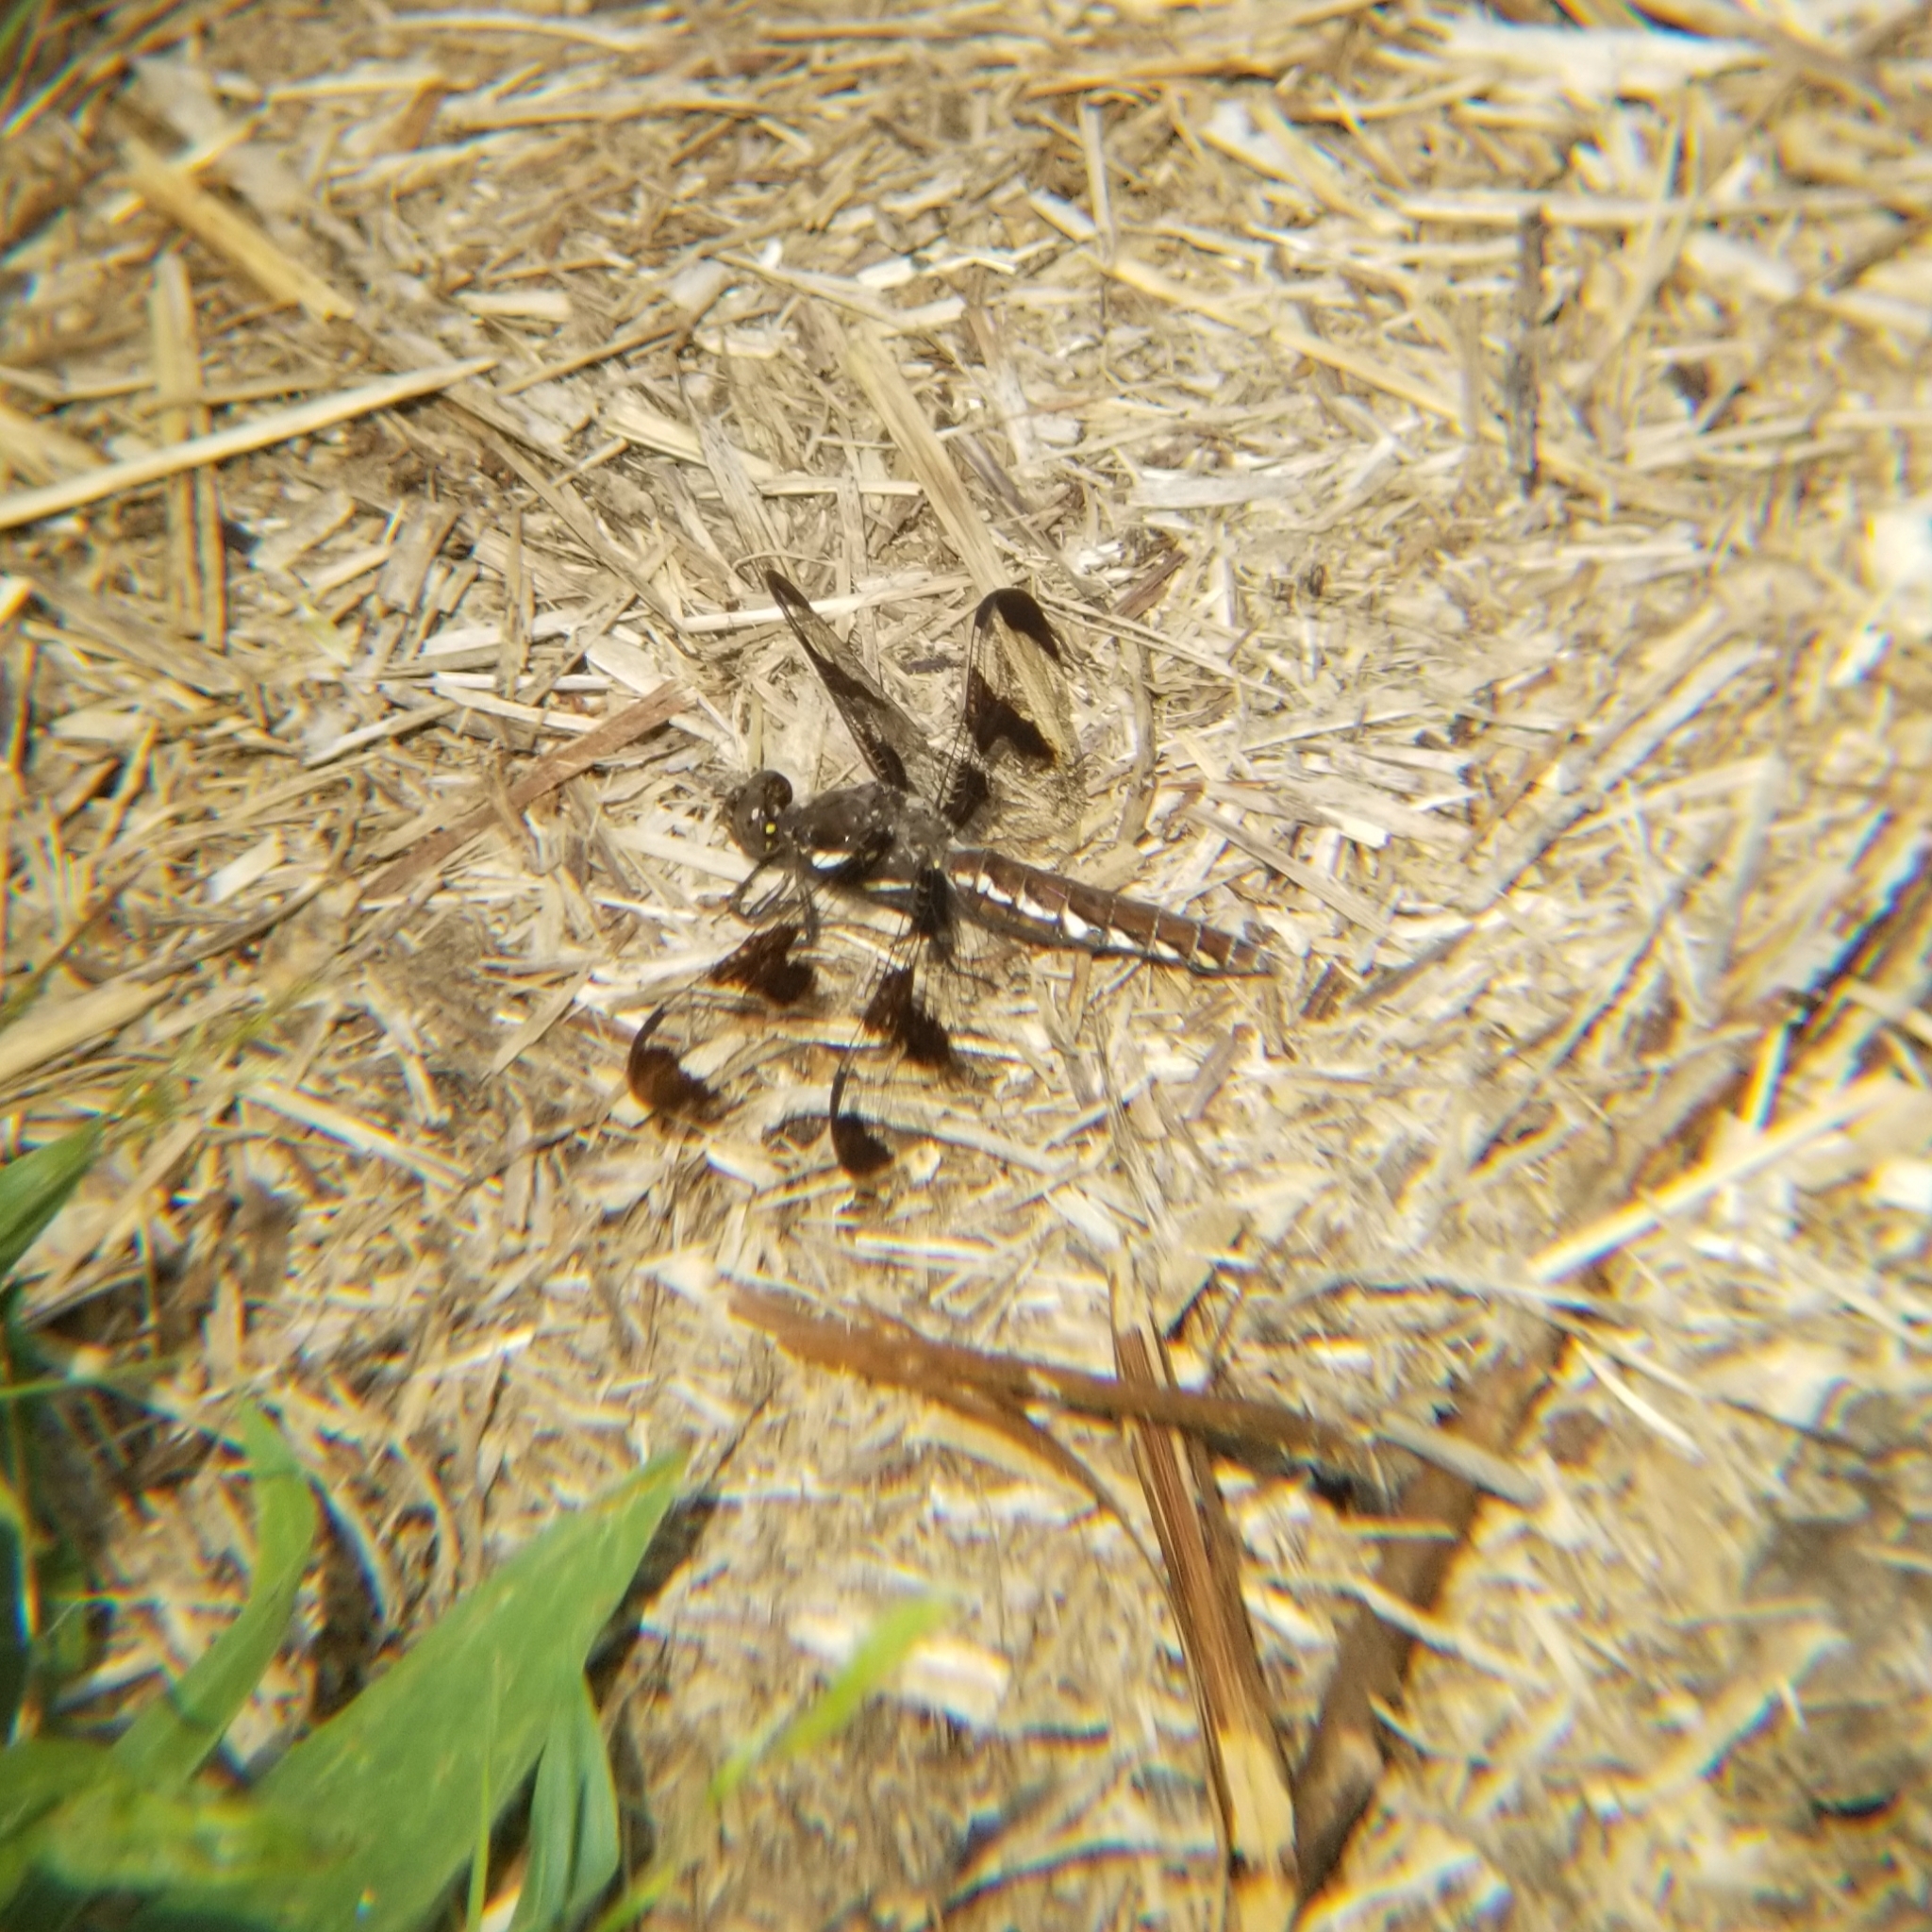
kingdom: Animalia
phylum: Arthropoda
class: Insecta
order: Odonata
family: Libellulidae
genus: Plathemis
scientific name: Plathemis lydia
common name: Common whitetail
